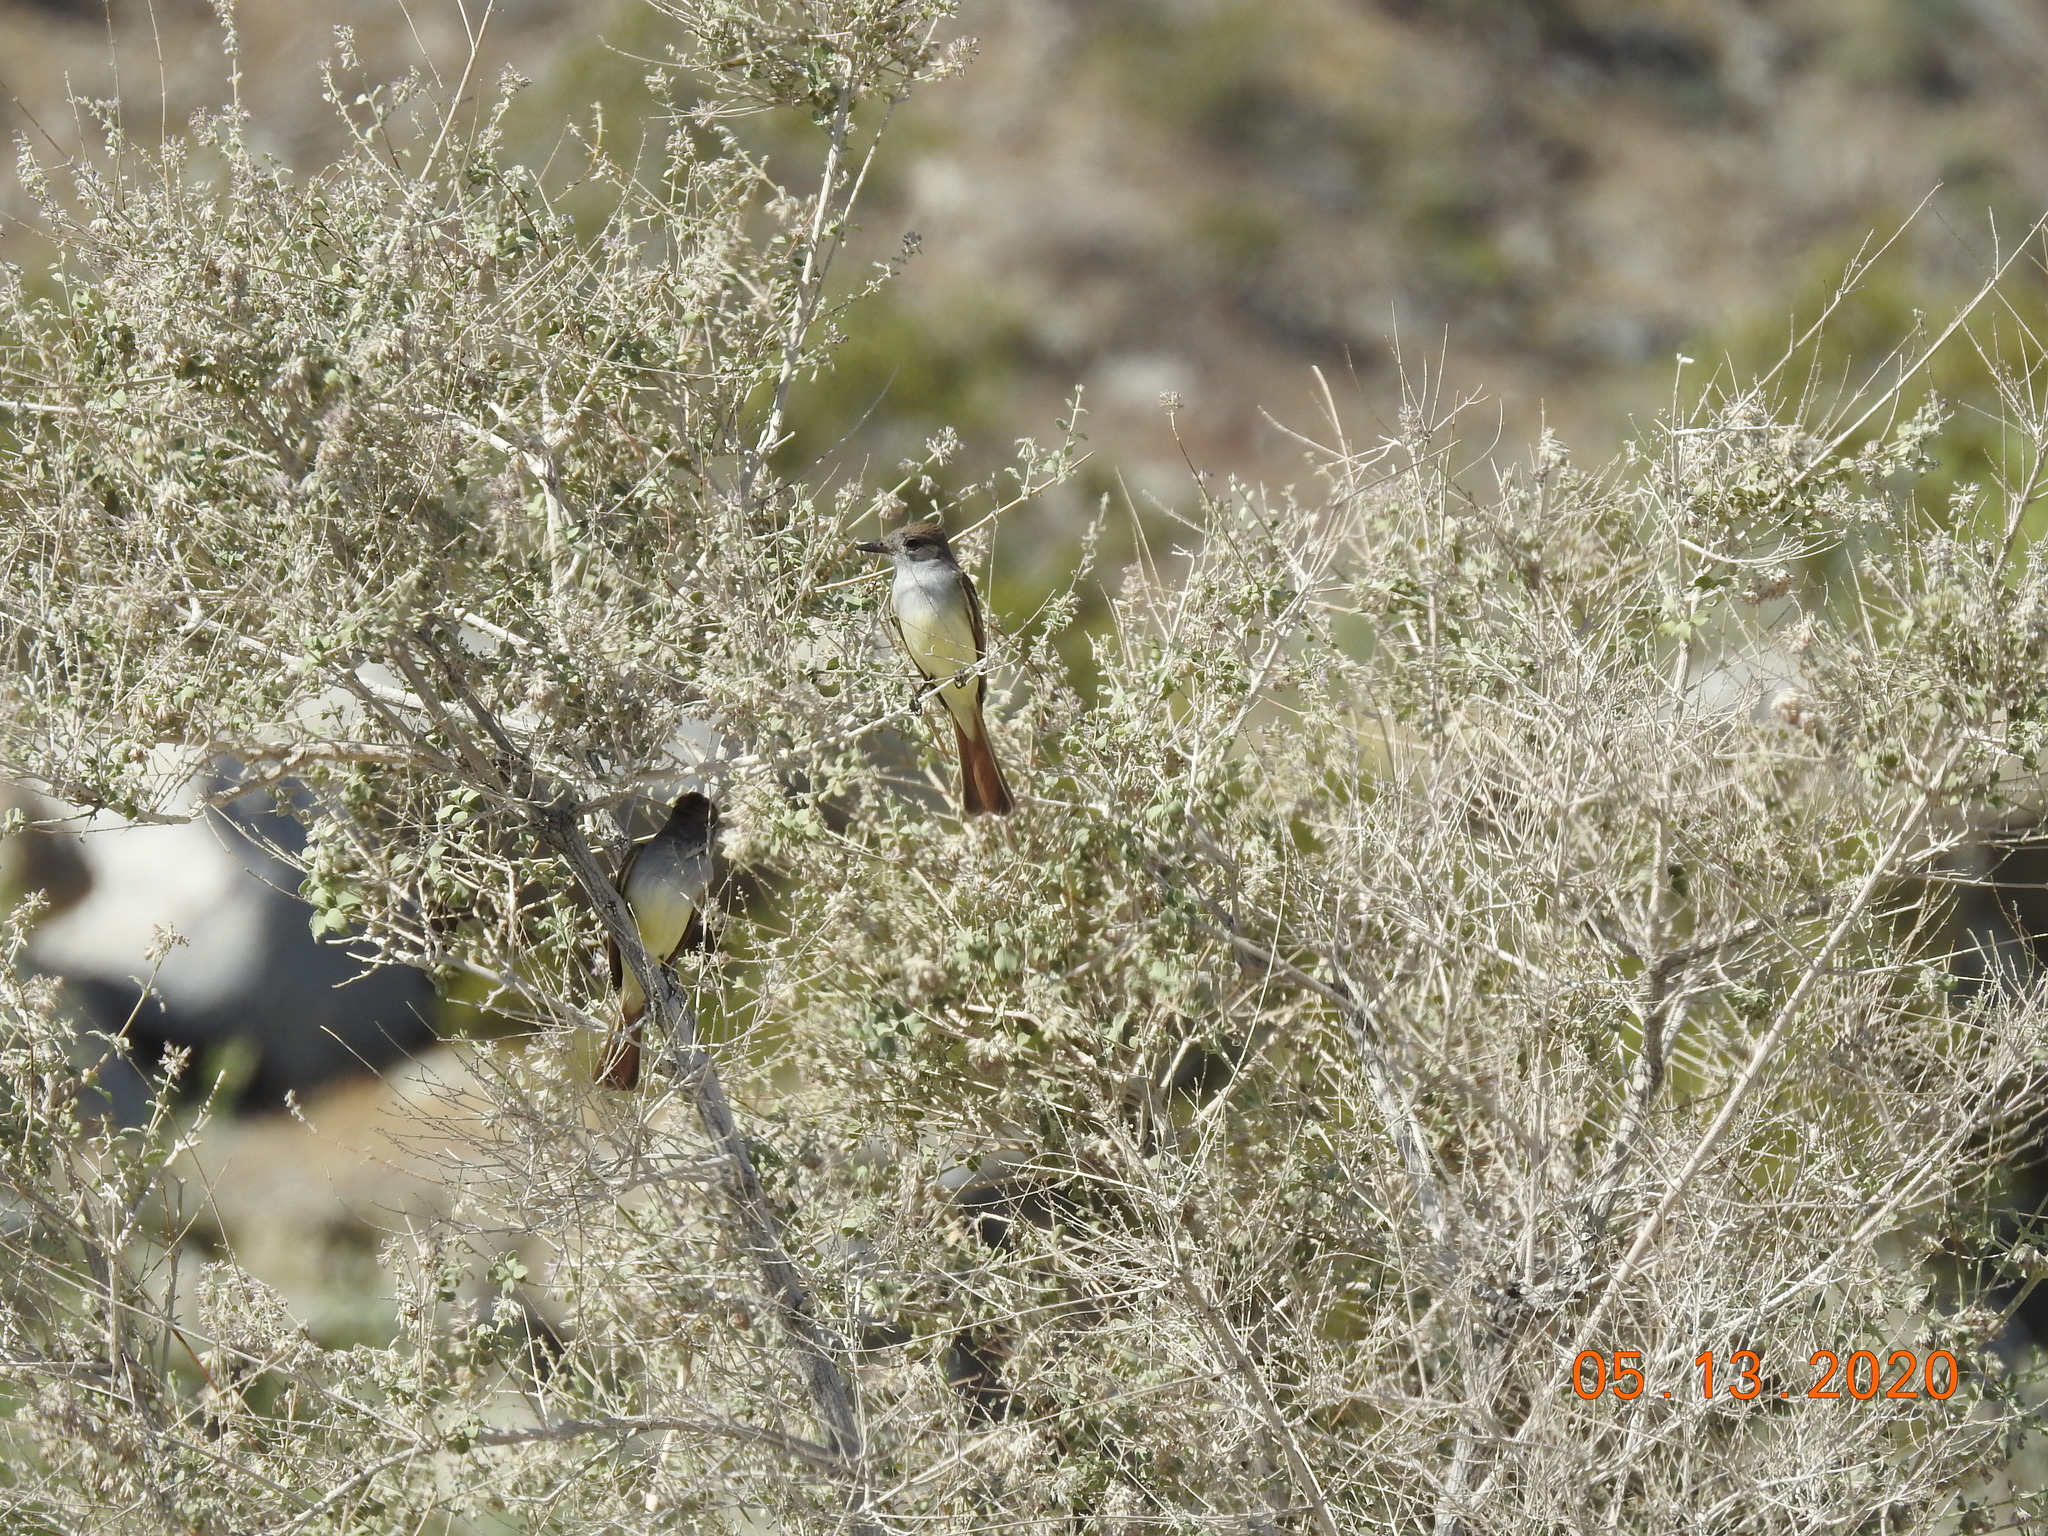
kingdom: Animalia
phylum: Chordata
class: Aves
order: Passeriformes
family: Tyrannidae
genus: Myiarchus
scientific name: Myiarchus cinerascens
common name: Ash-throated flycatcher
